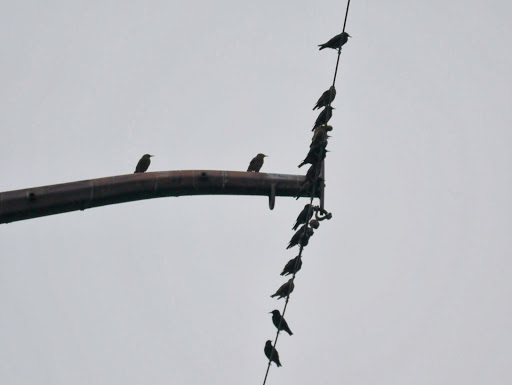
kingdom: Animalia
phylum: Chordata
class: Aves
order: Passeriformes
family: Sturnidae
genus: Sturnus
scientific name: Sturnus vulgaris
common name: Common starling
